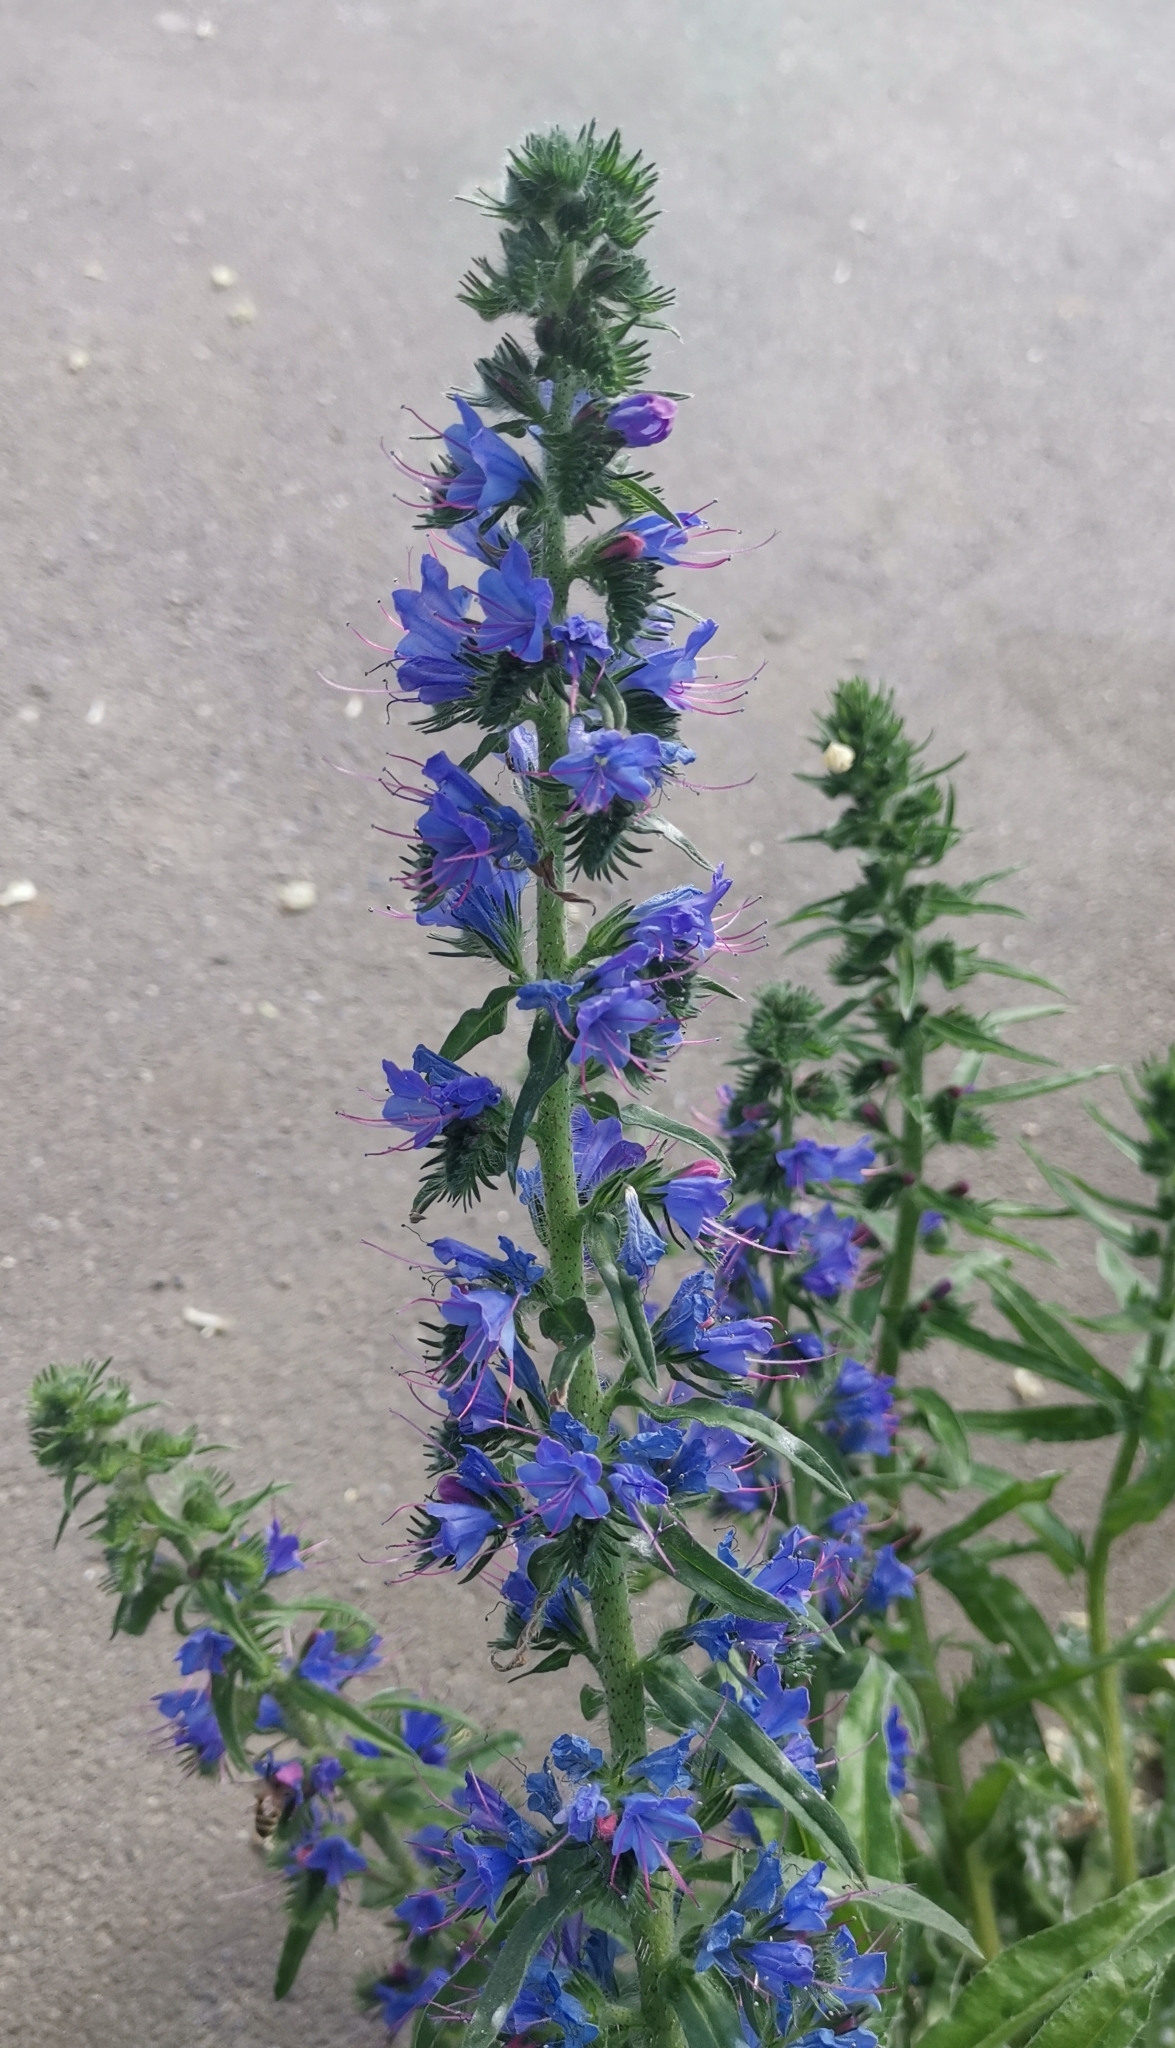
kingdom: Plantae
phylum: Tracheophyta
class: Magnoliopsida
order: Boraginales
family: Boraginaceae
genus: Echium
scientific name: Echium vulgare
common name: Common viper's bugloss
